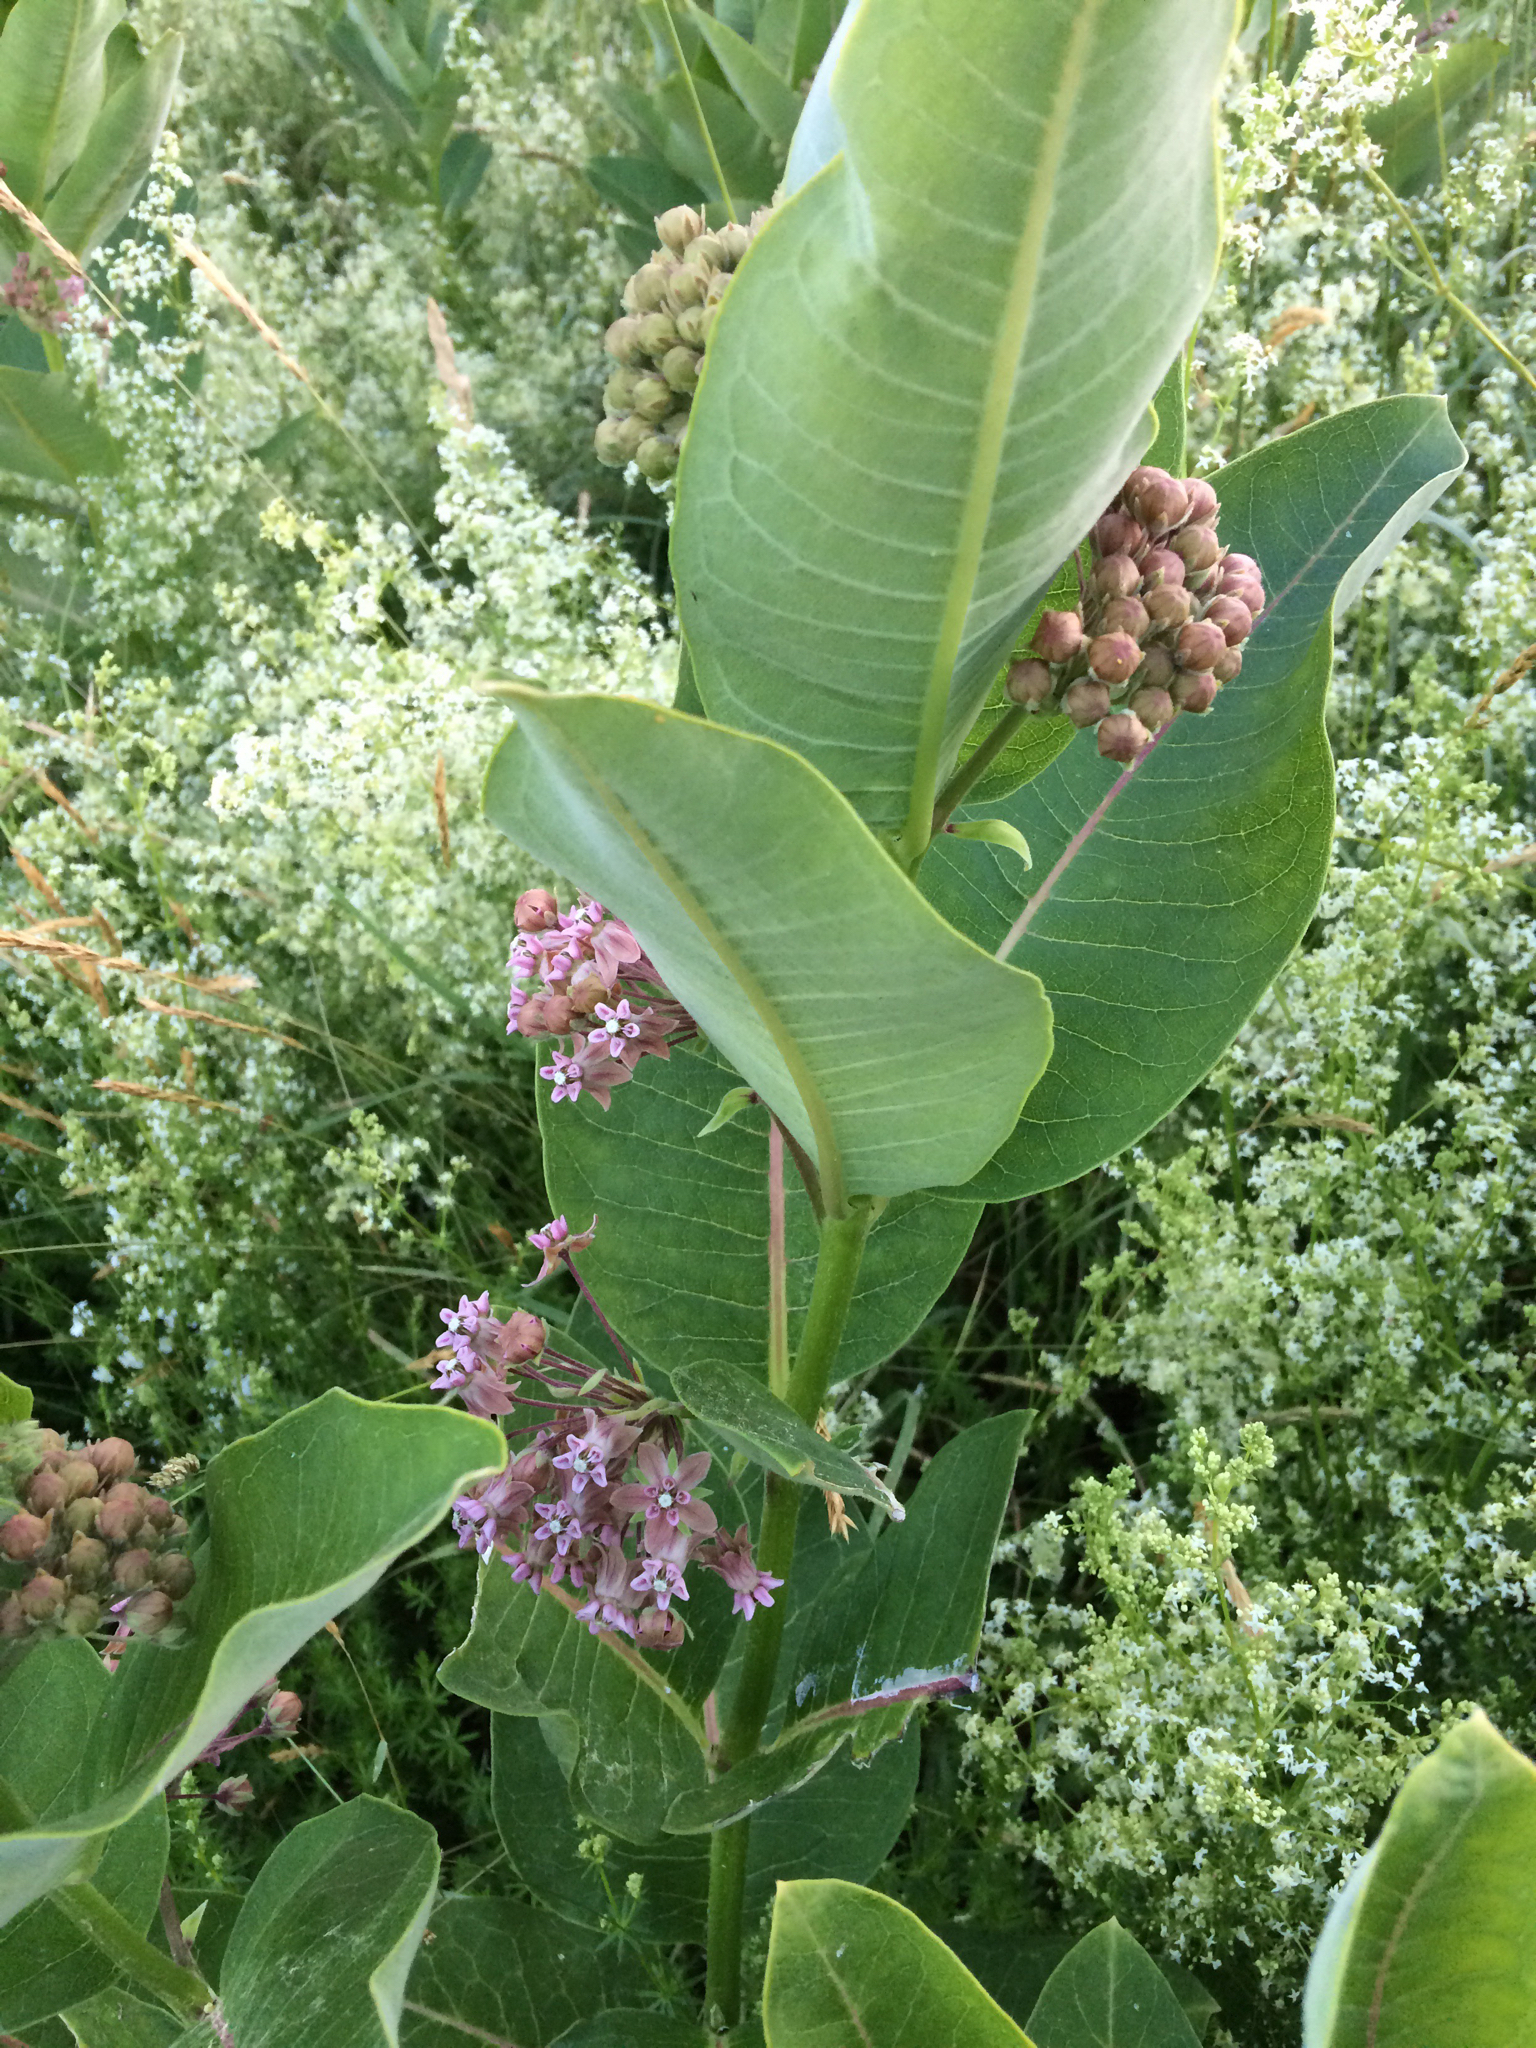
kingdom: Plantae
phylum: Tracheophyta
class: Magnoliopsida
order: Gentianales
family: Apocynaceae
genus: Asclepias
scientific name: Asclepias syriaca
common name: Common milkweed
